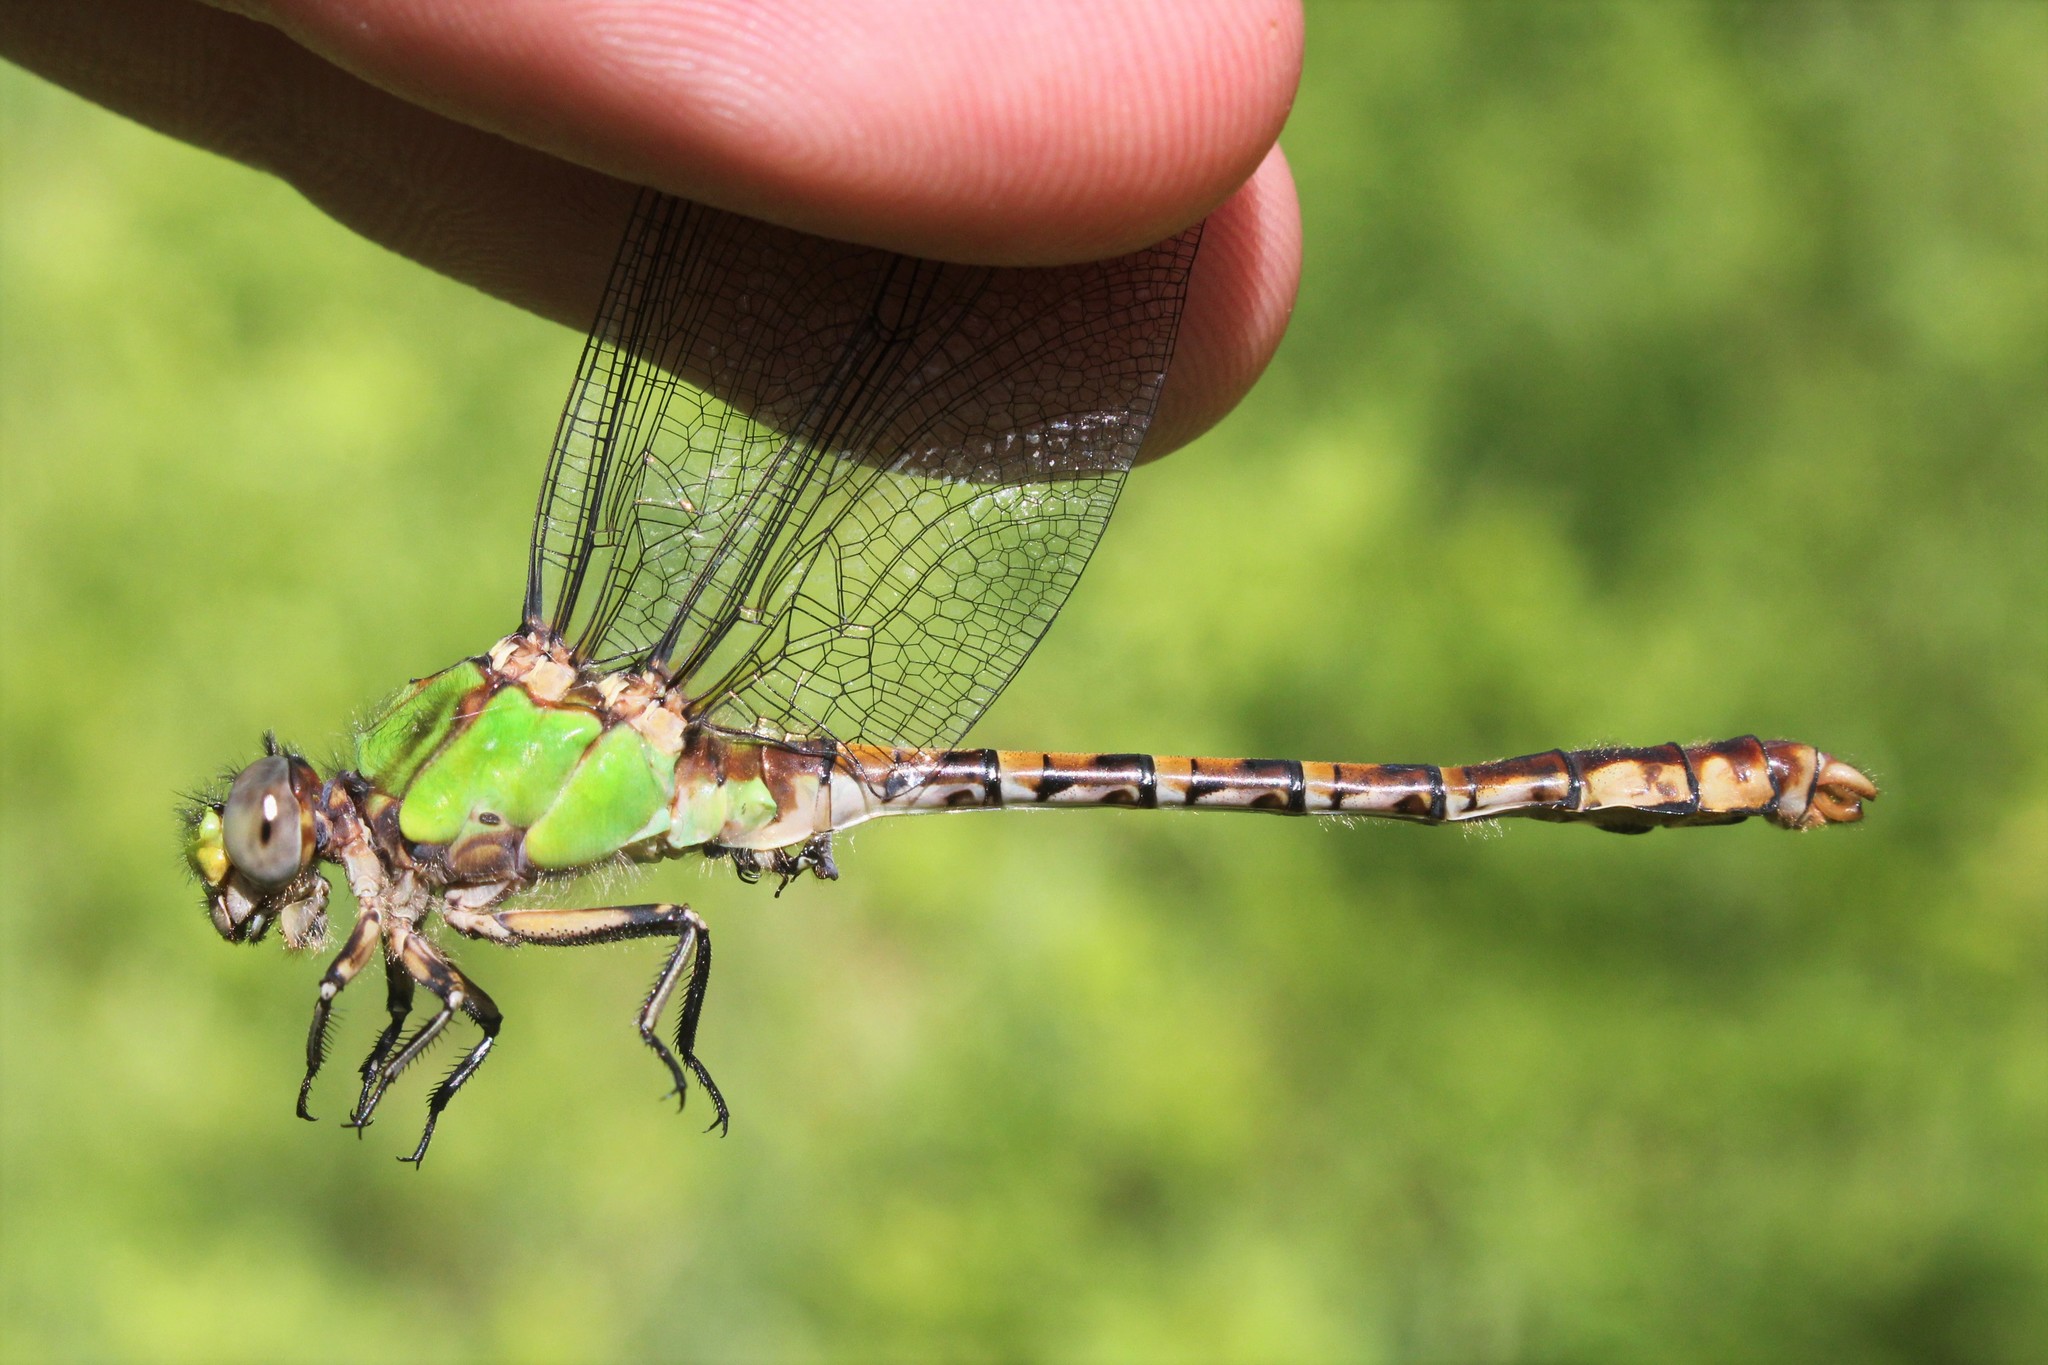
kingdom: Animalia
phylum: Arthropoda
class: Insecta
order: Odonata
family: Gomphidae
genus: Ophiogomphus
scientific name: Ophiogomphus rupinsulensis
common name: Rusty snaketail
